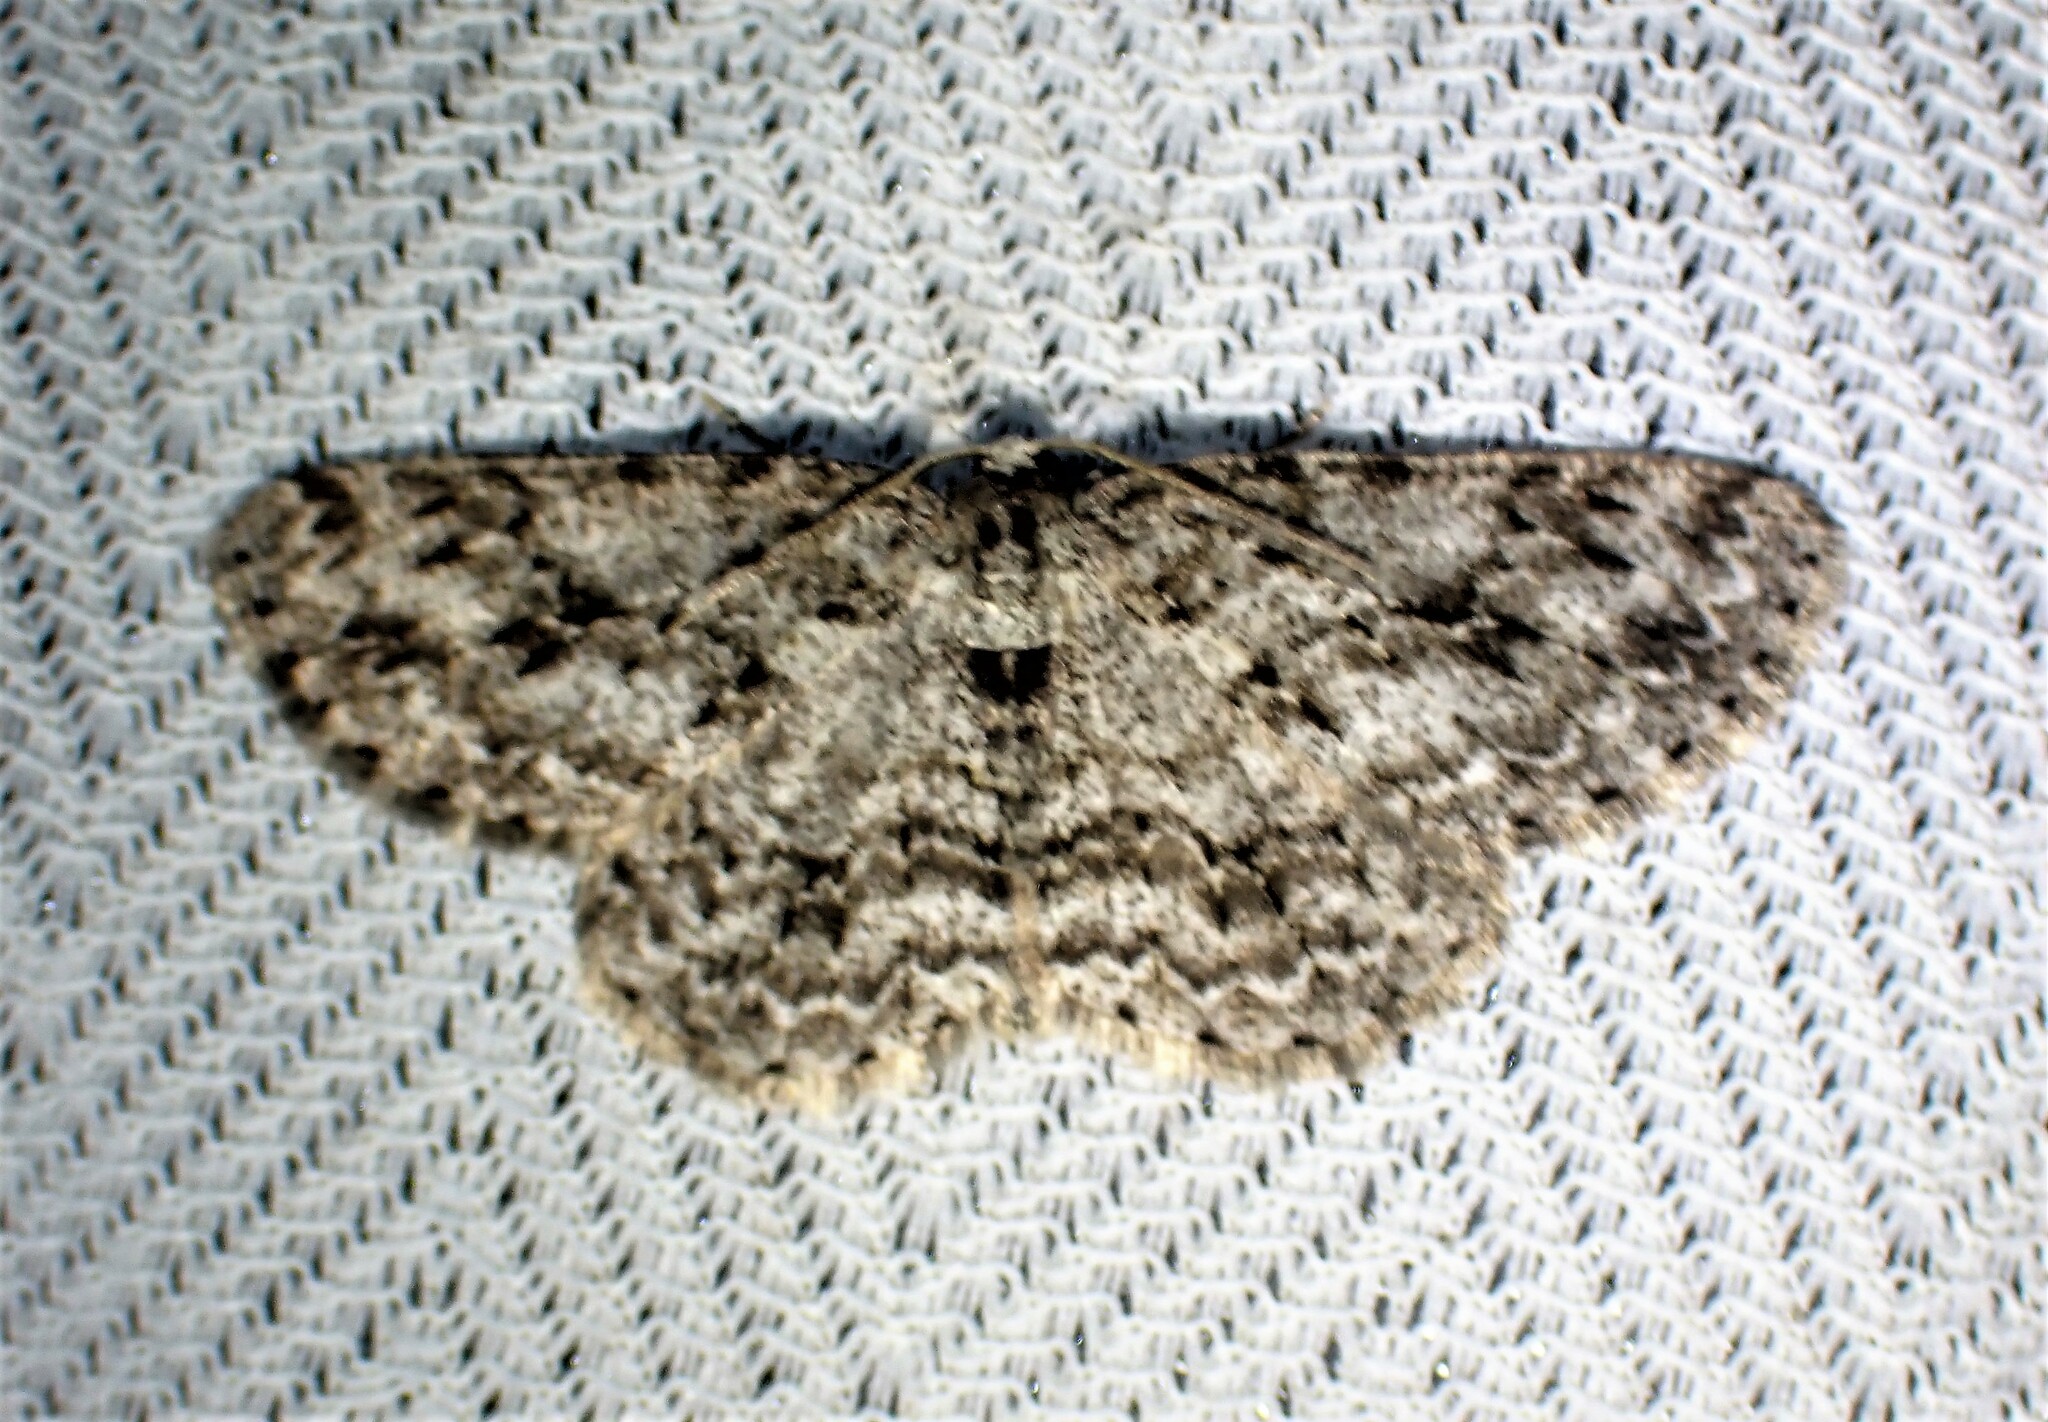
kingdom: Animalia
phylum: Arthropoda
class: Insecta
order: Lepidoptera
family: Geometridae
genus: Ectropis
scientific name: Ectropis crepuscularia
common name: Engrailed
